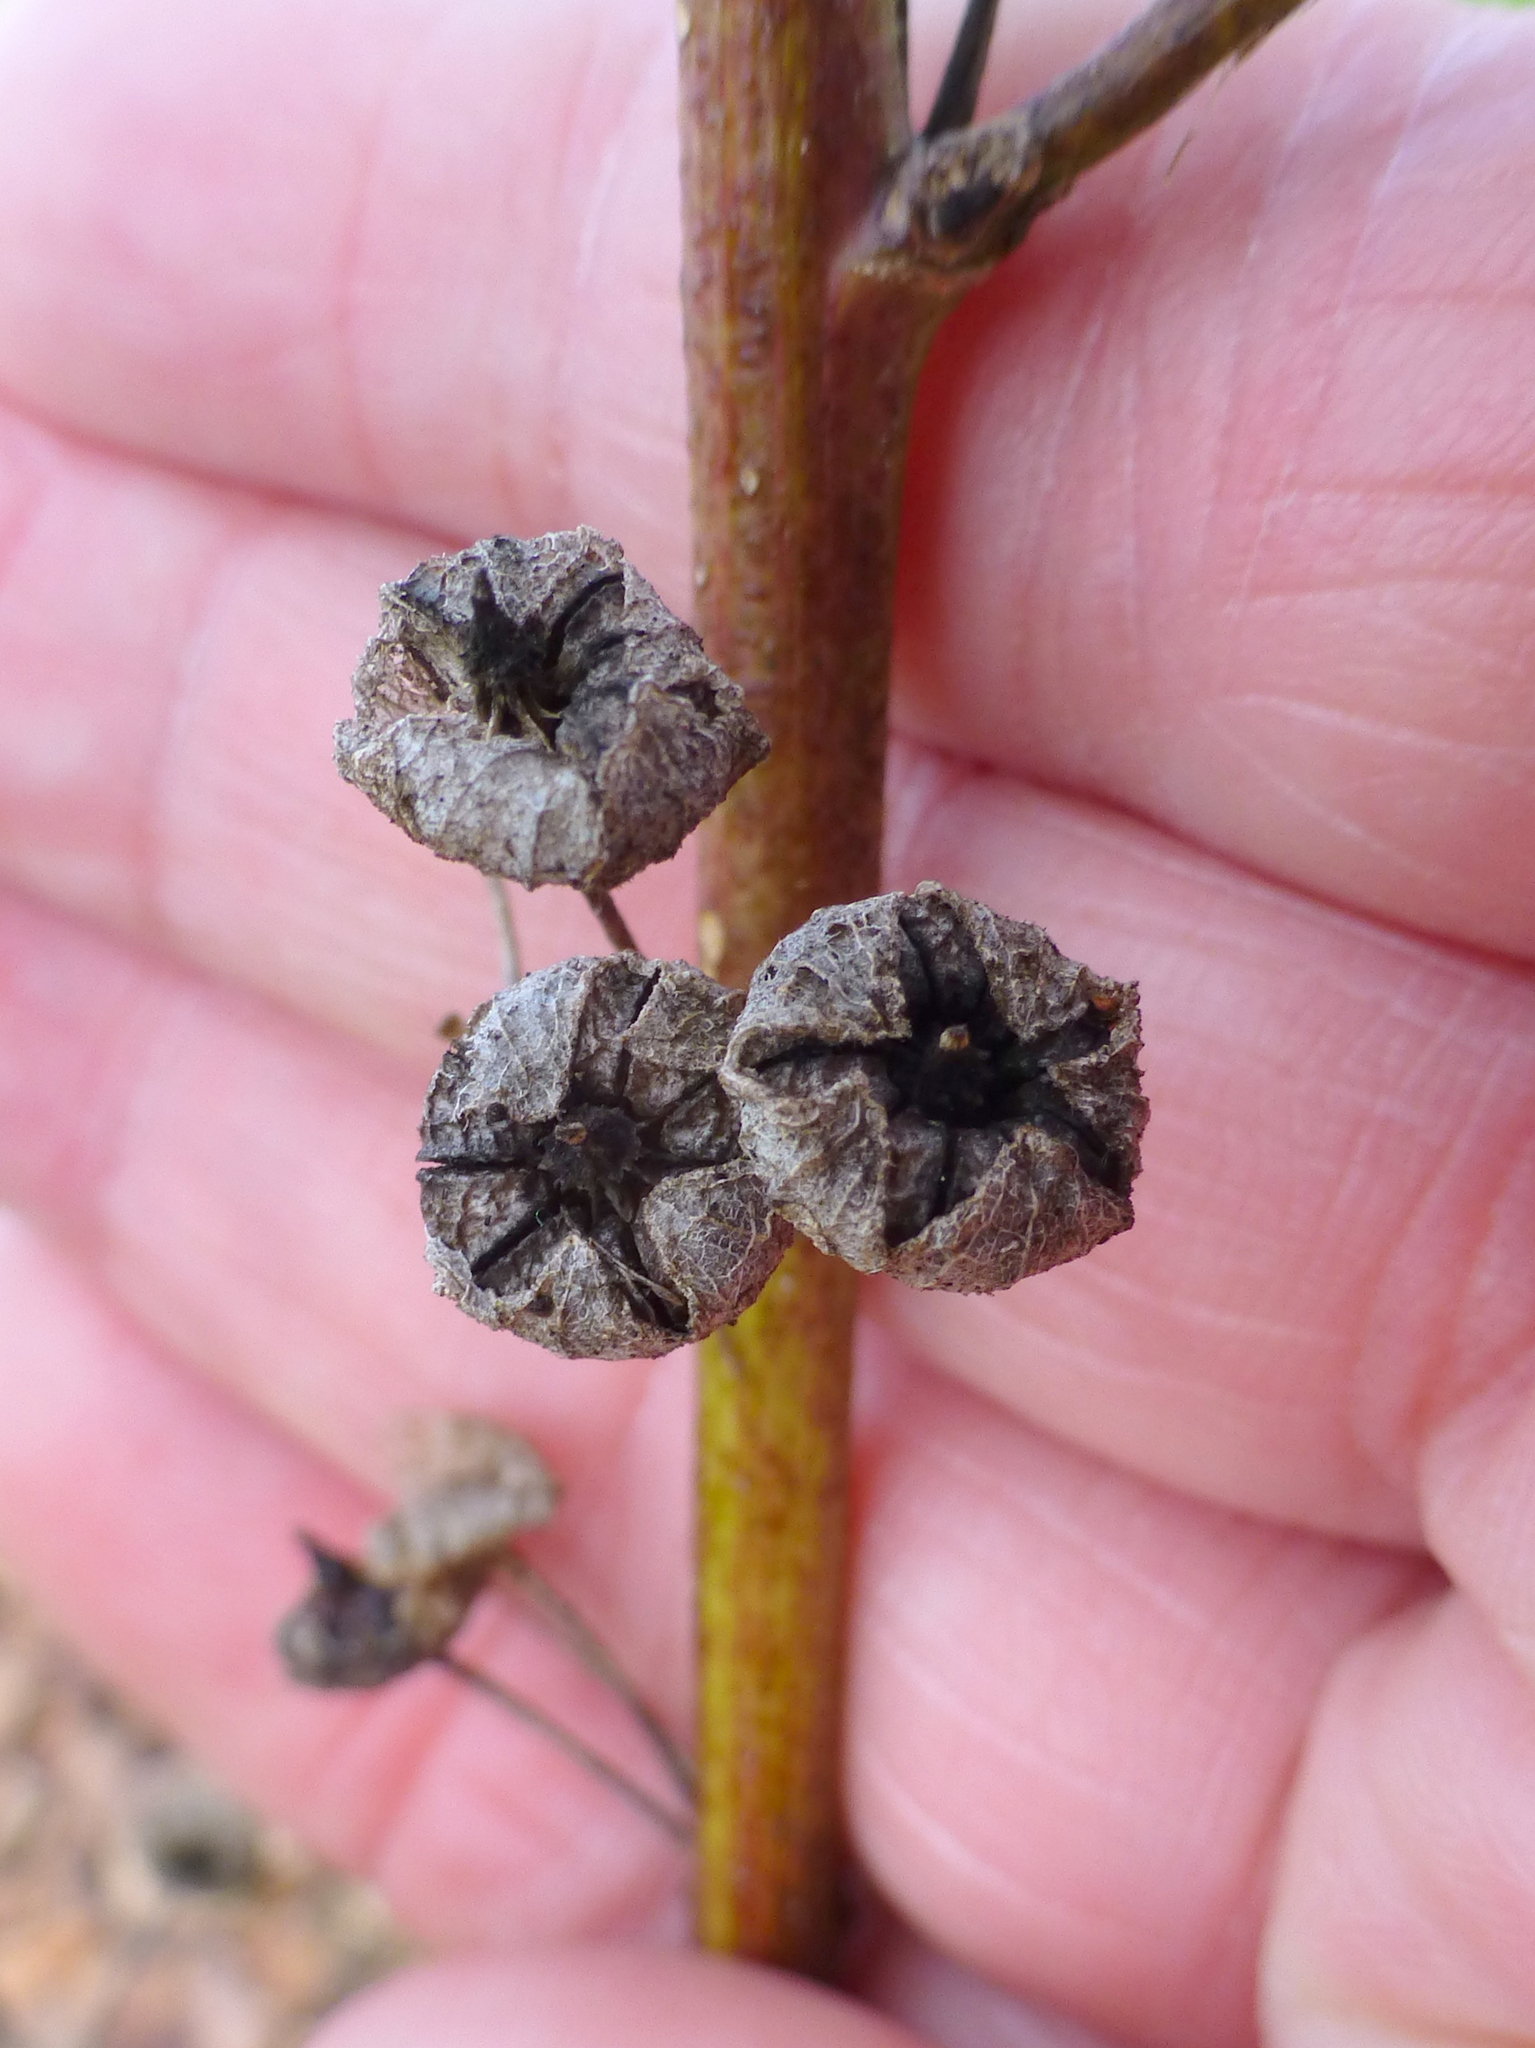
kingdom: Plantae
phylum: Tracheophyta
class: Magnoliopsida
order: Malvales
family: Malvaceae
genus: Malva
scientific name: Malva sylvestris
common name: Common mallow
